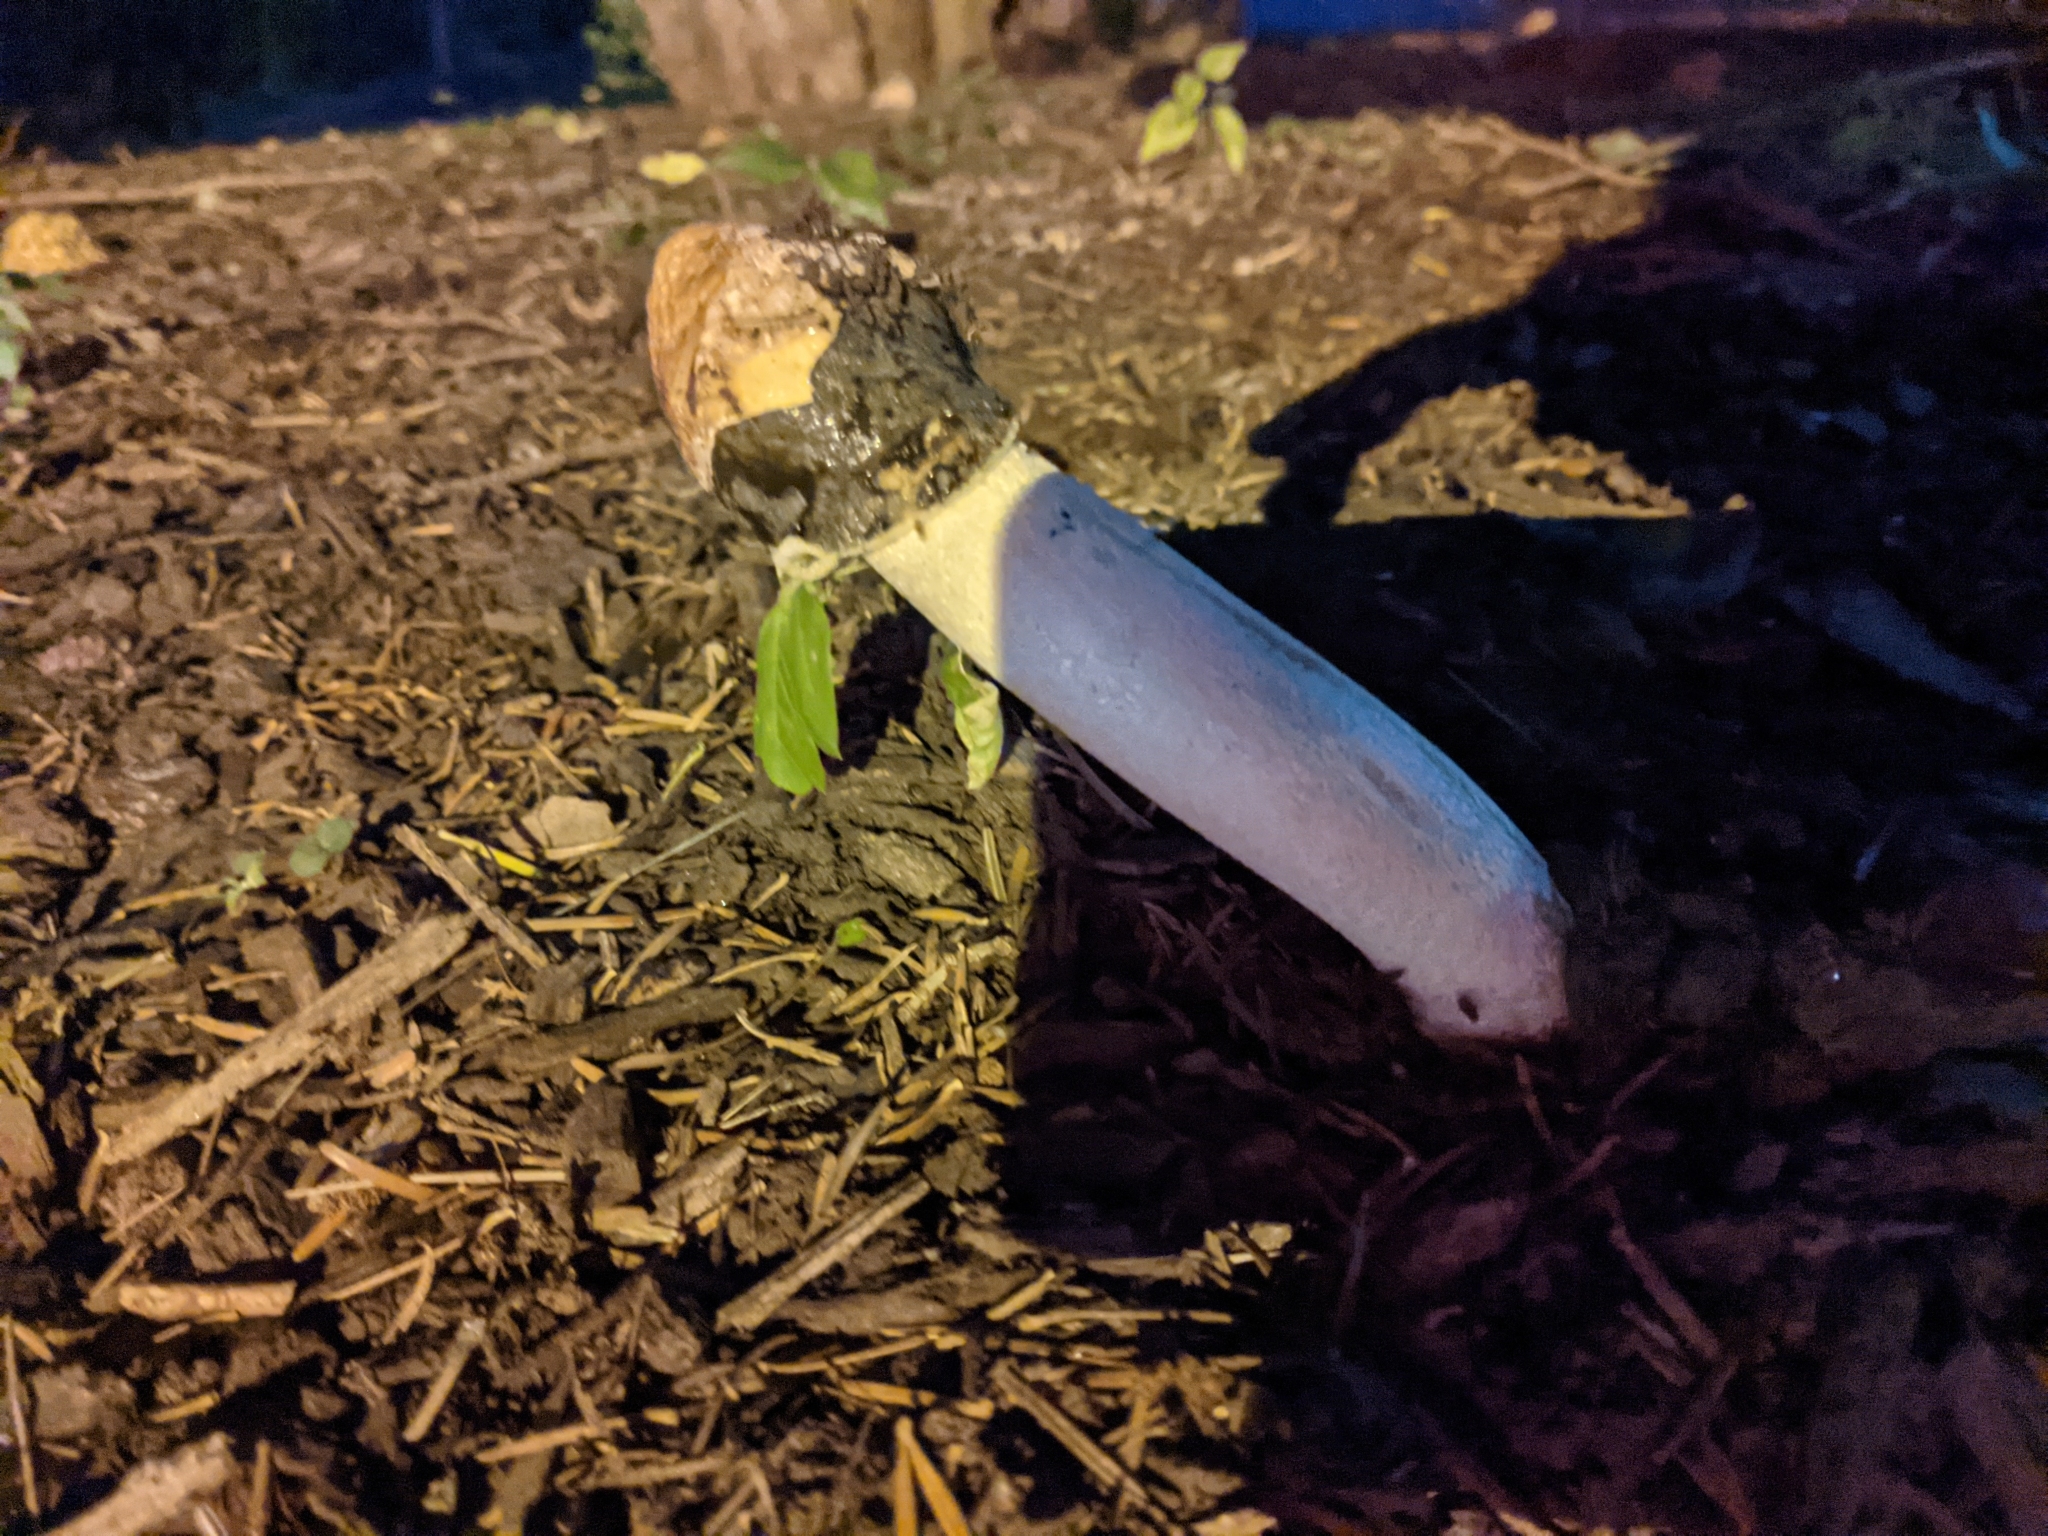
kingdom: Fungi
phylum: Basidiomycota
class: Agaricomycetes
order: Phallales
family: Phallaceae
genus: Phallus
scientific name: Phallus ravenelii
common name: Ravenel's stinkhorn
